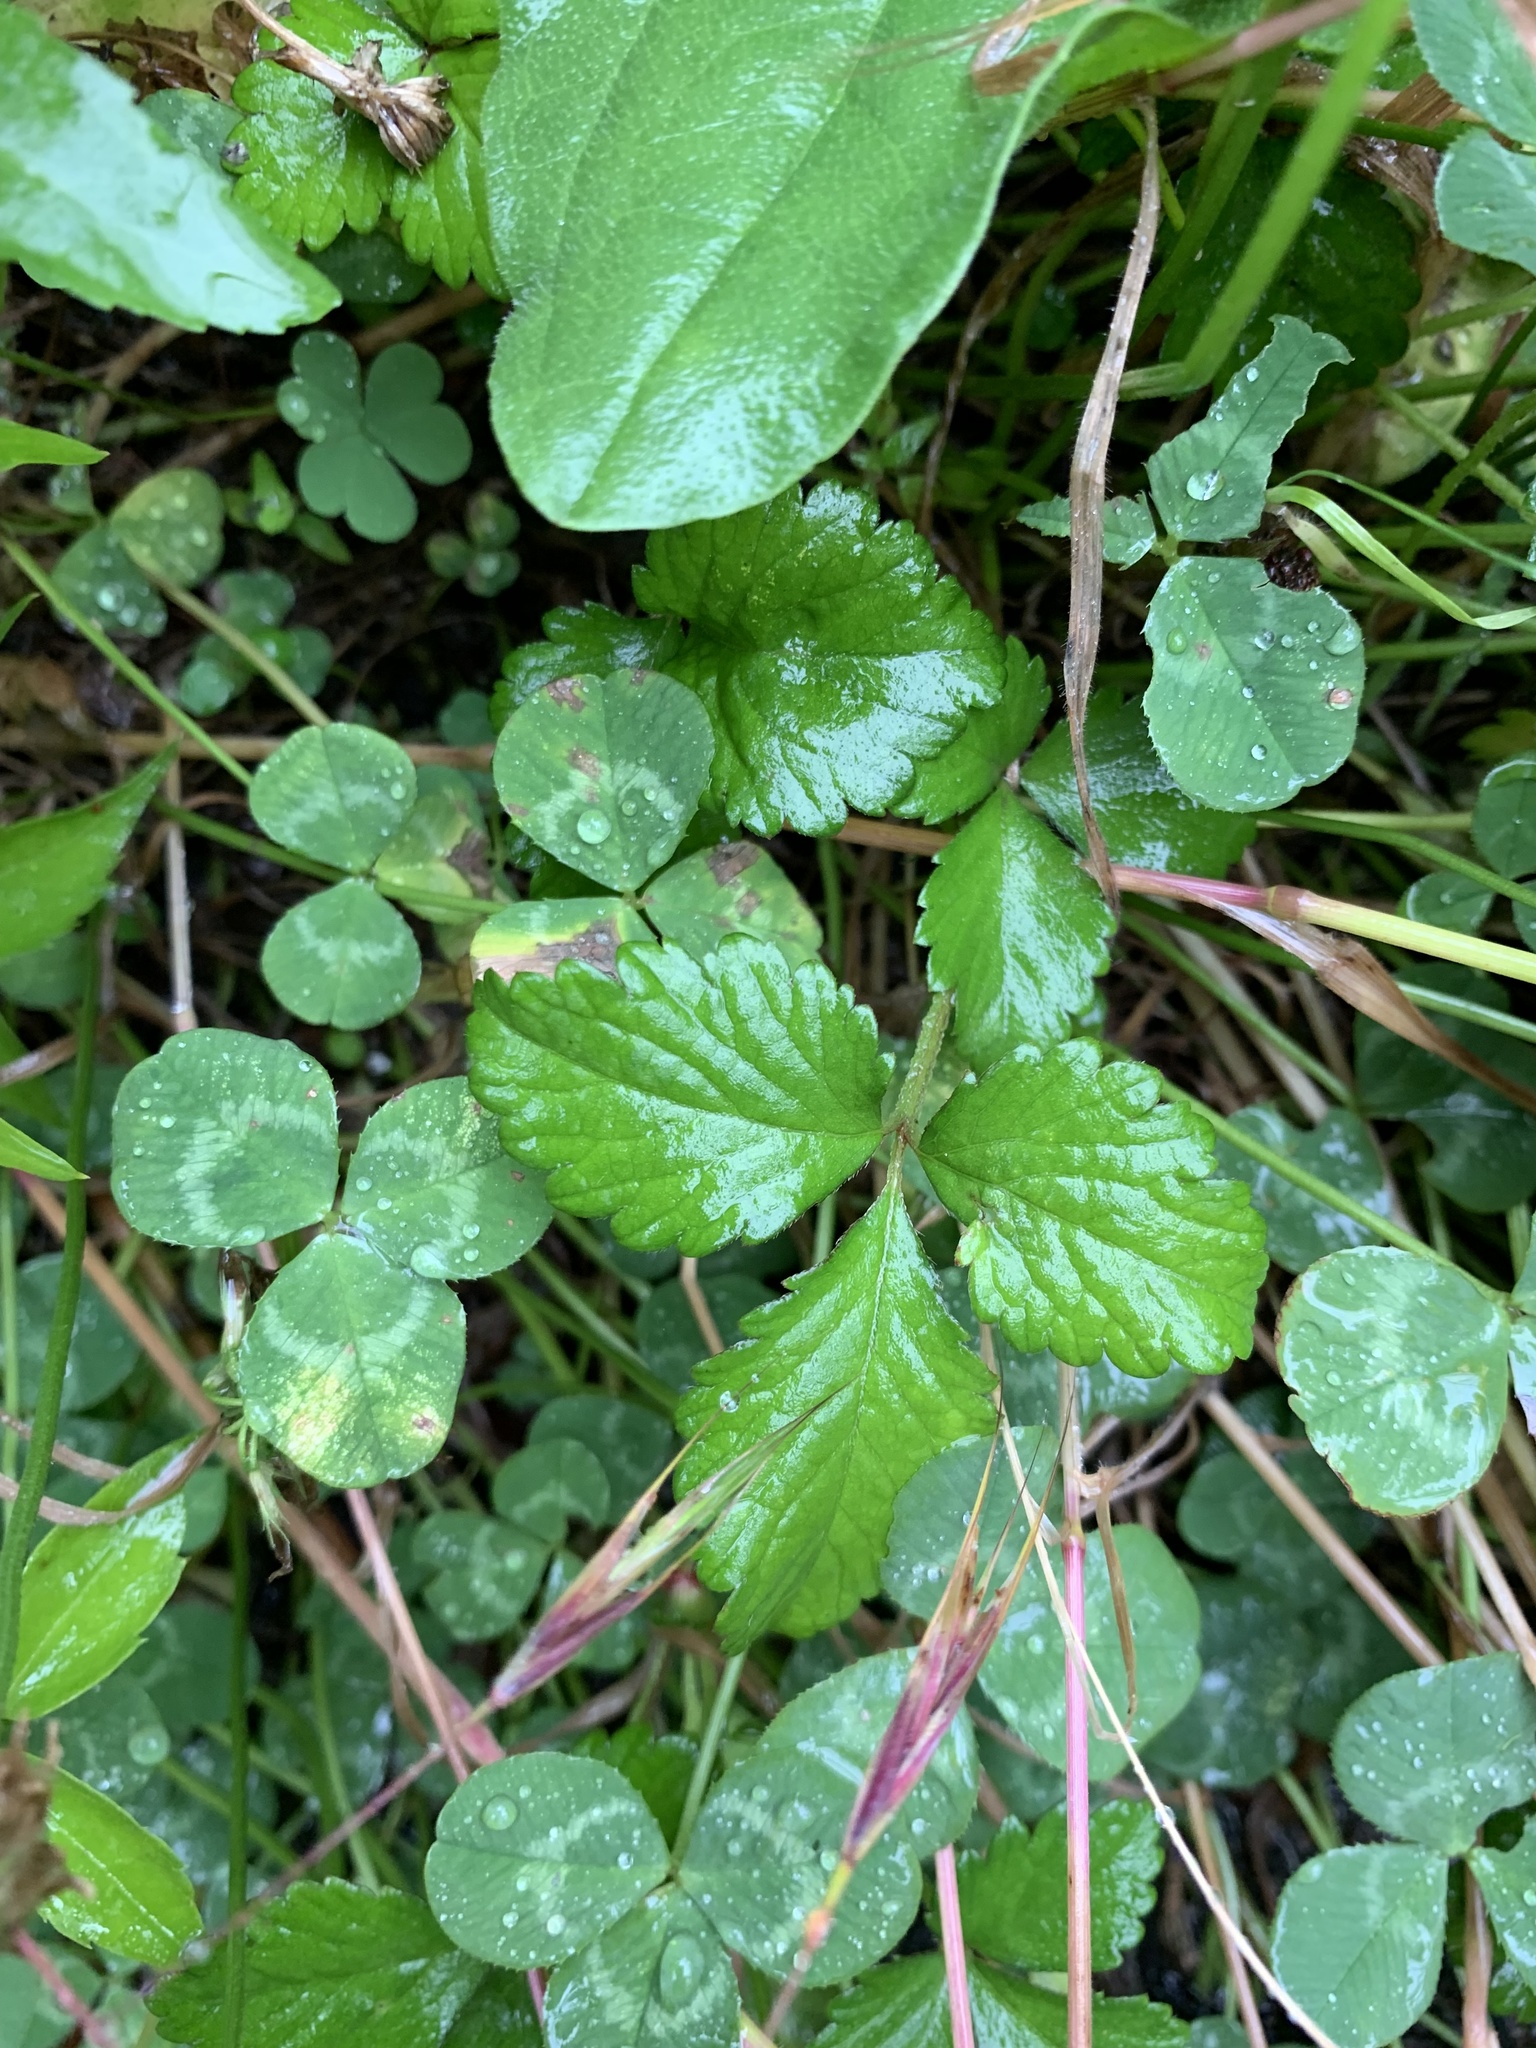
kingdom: Plantae
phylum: Tracheophyta
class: Magnoliopsida
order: Rosales
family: Rosaceae
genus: Potentilla
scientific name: Potentilla indica
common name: Yellow-flowered strawberry
